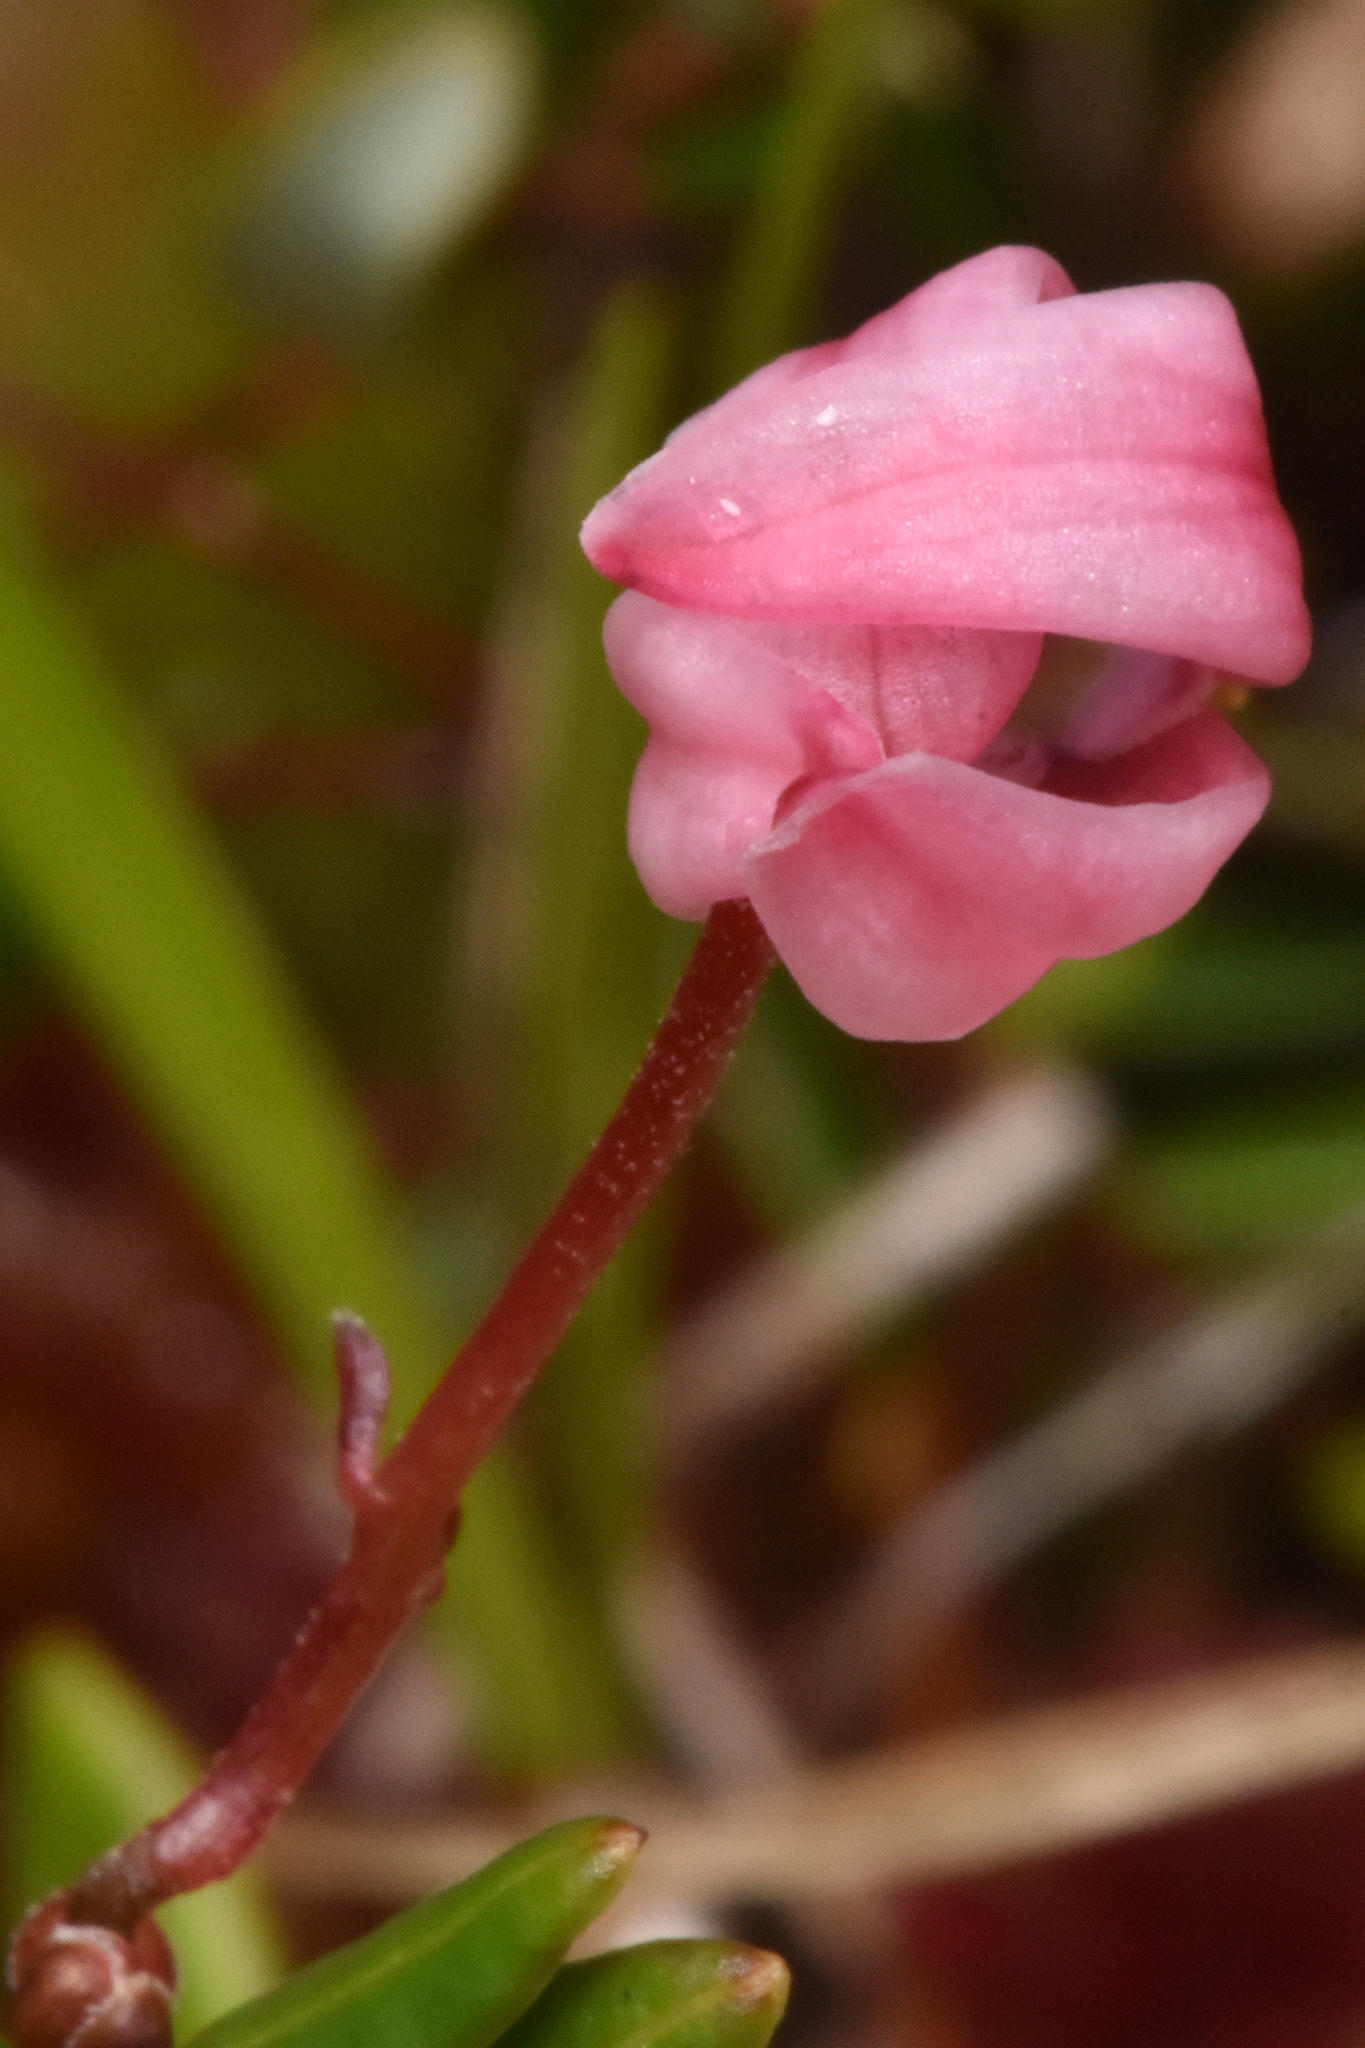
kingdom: Plantae
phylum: Tracheophyta
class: Magnoliopsida
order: Ericales
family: Ericaceae
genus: Vaccinium
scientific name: Vaccinium oxycoccos
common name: Cranberry
